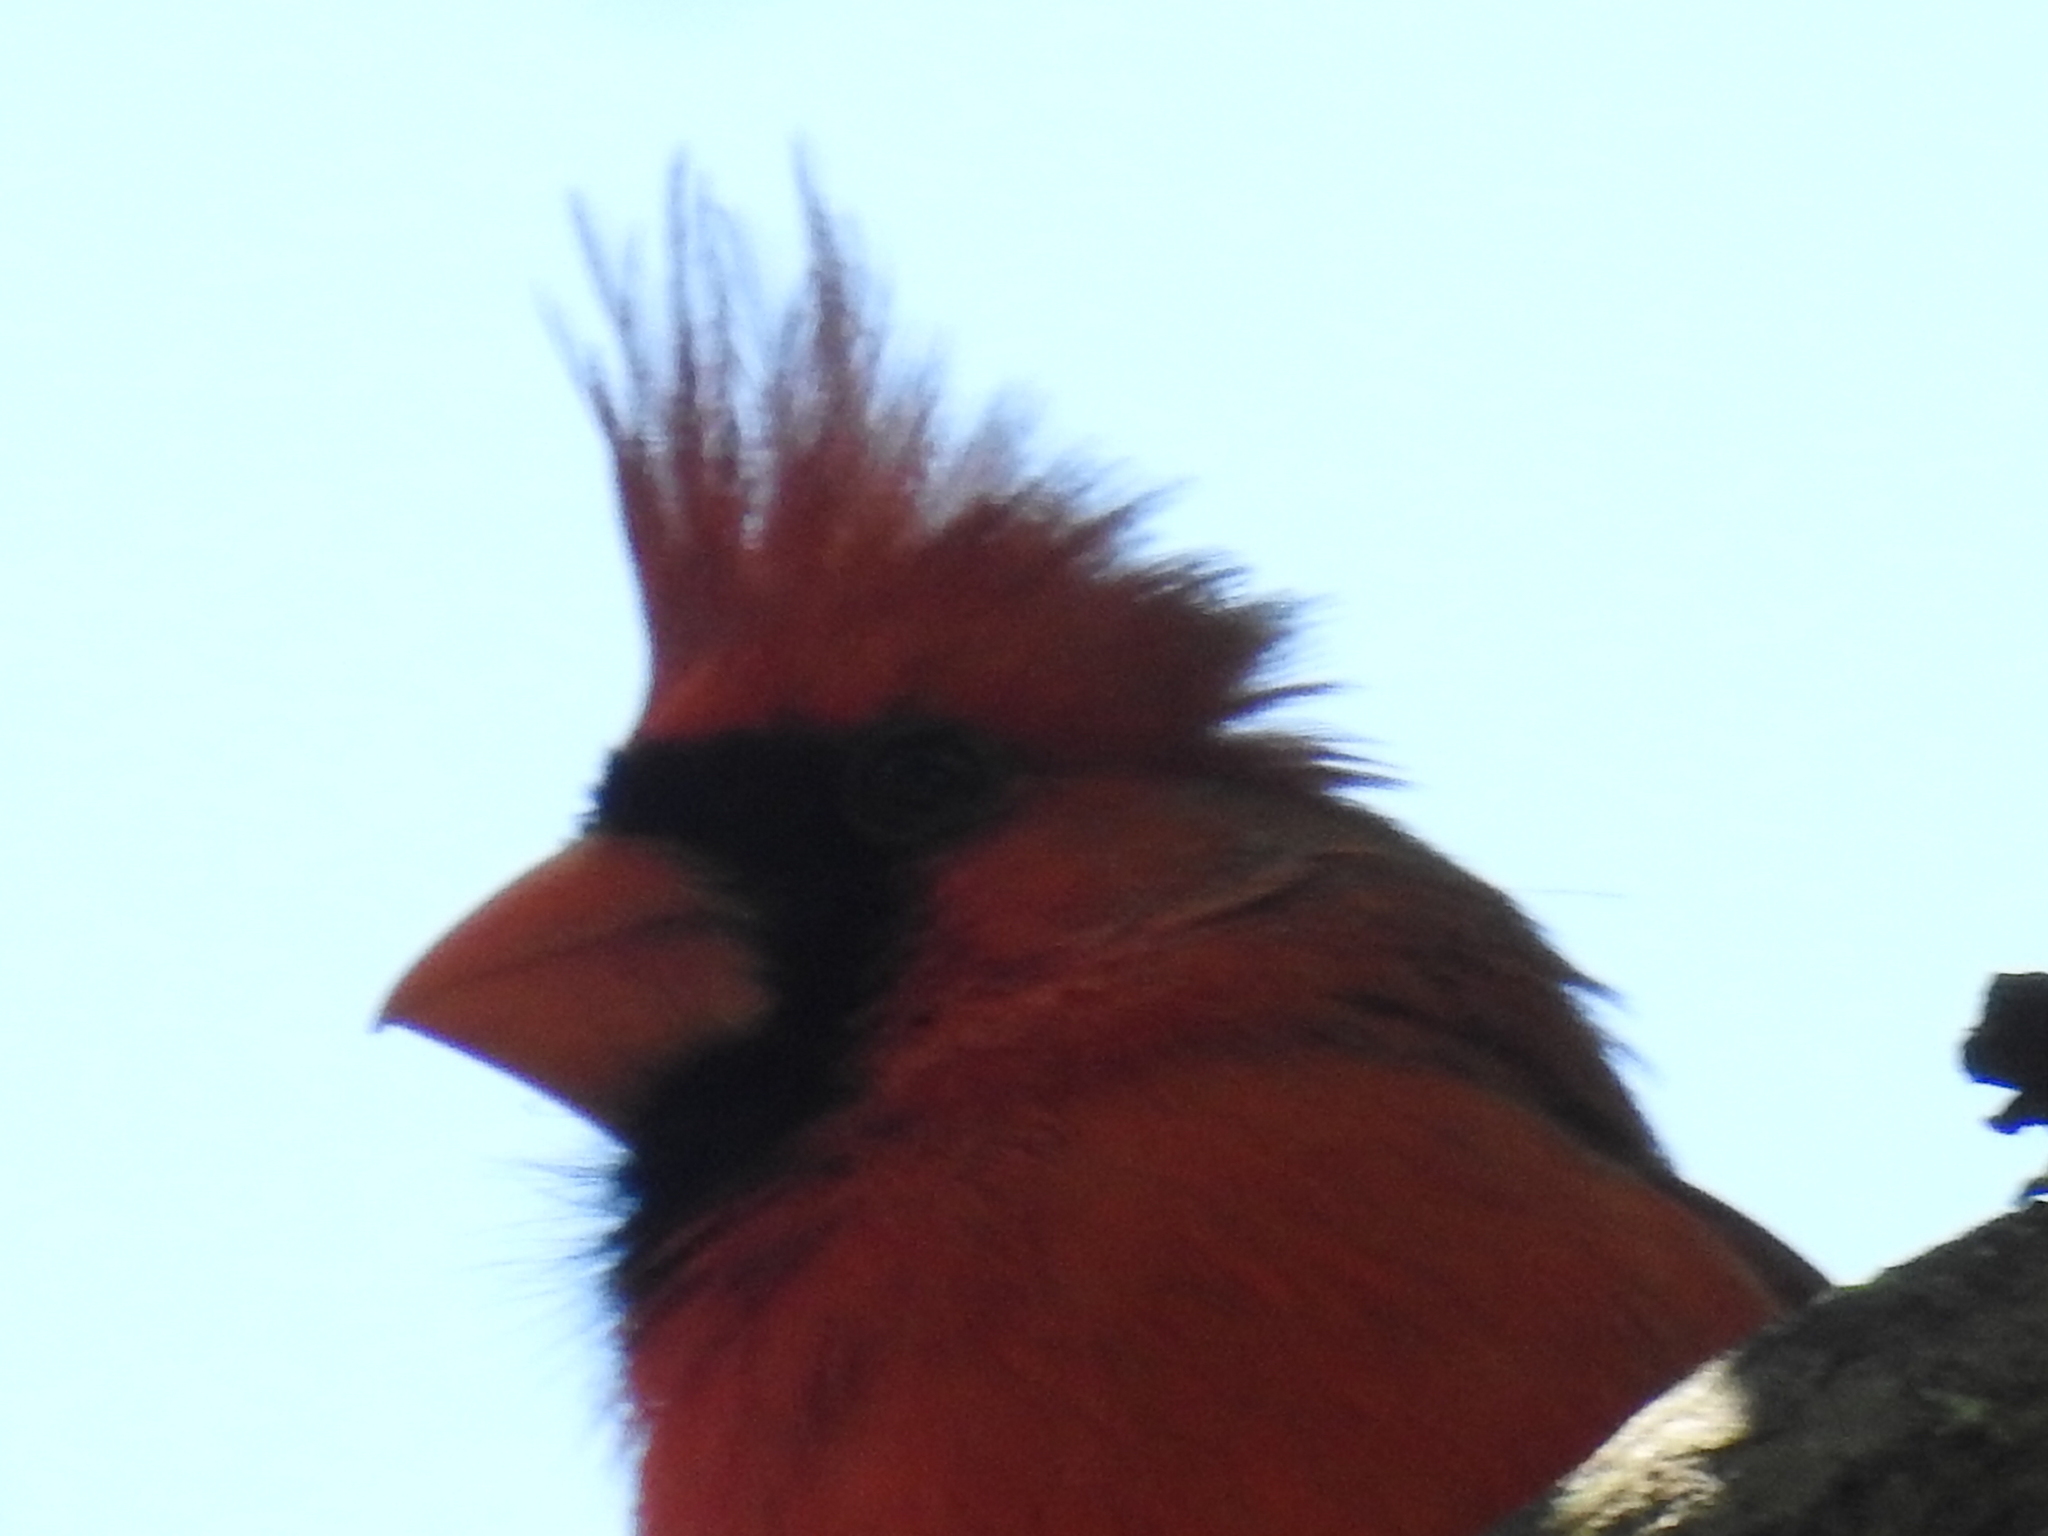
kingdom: Animalia
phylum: Chordata
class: Aves
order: Passeriformes
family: Cardinalidae
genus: Cardinalis
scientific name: Cardinalis cardinalis
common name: Northern cardinal
